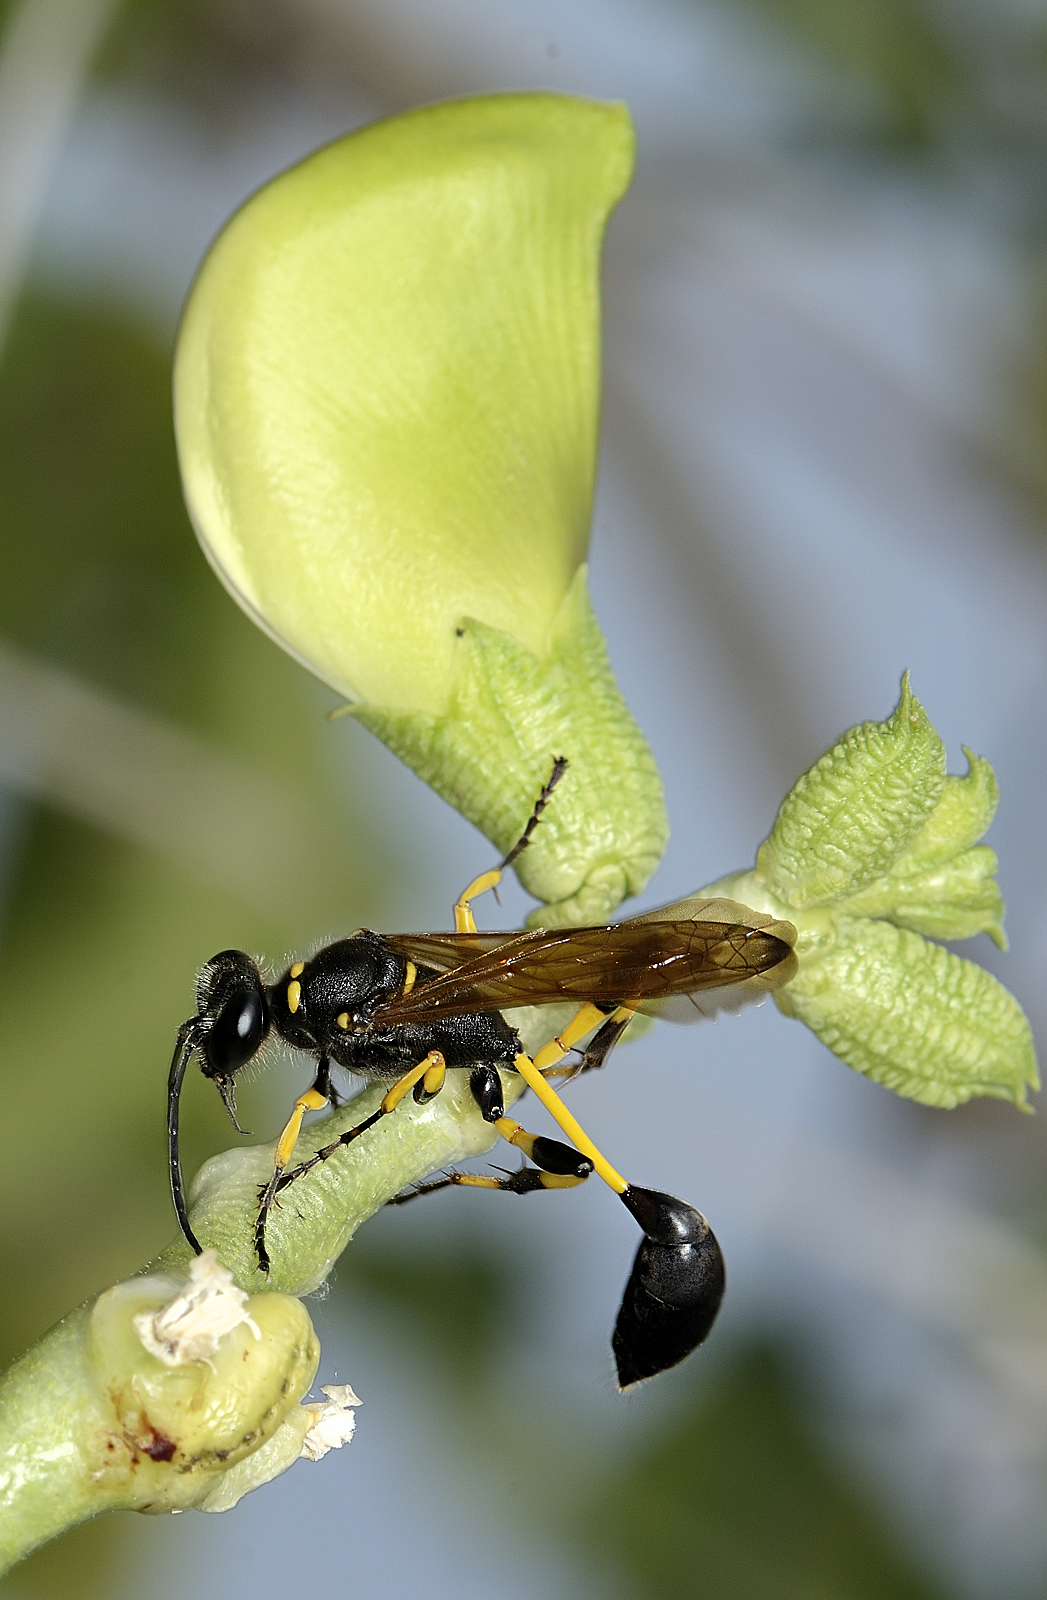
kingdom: Animalia
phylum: Arthropoda
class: Insecta
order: Hymenoptera
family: Sphecidae
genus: Sceliphron
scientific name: Sceliphron madraspatanum
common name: Mud dauber
